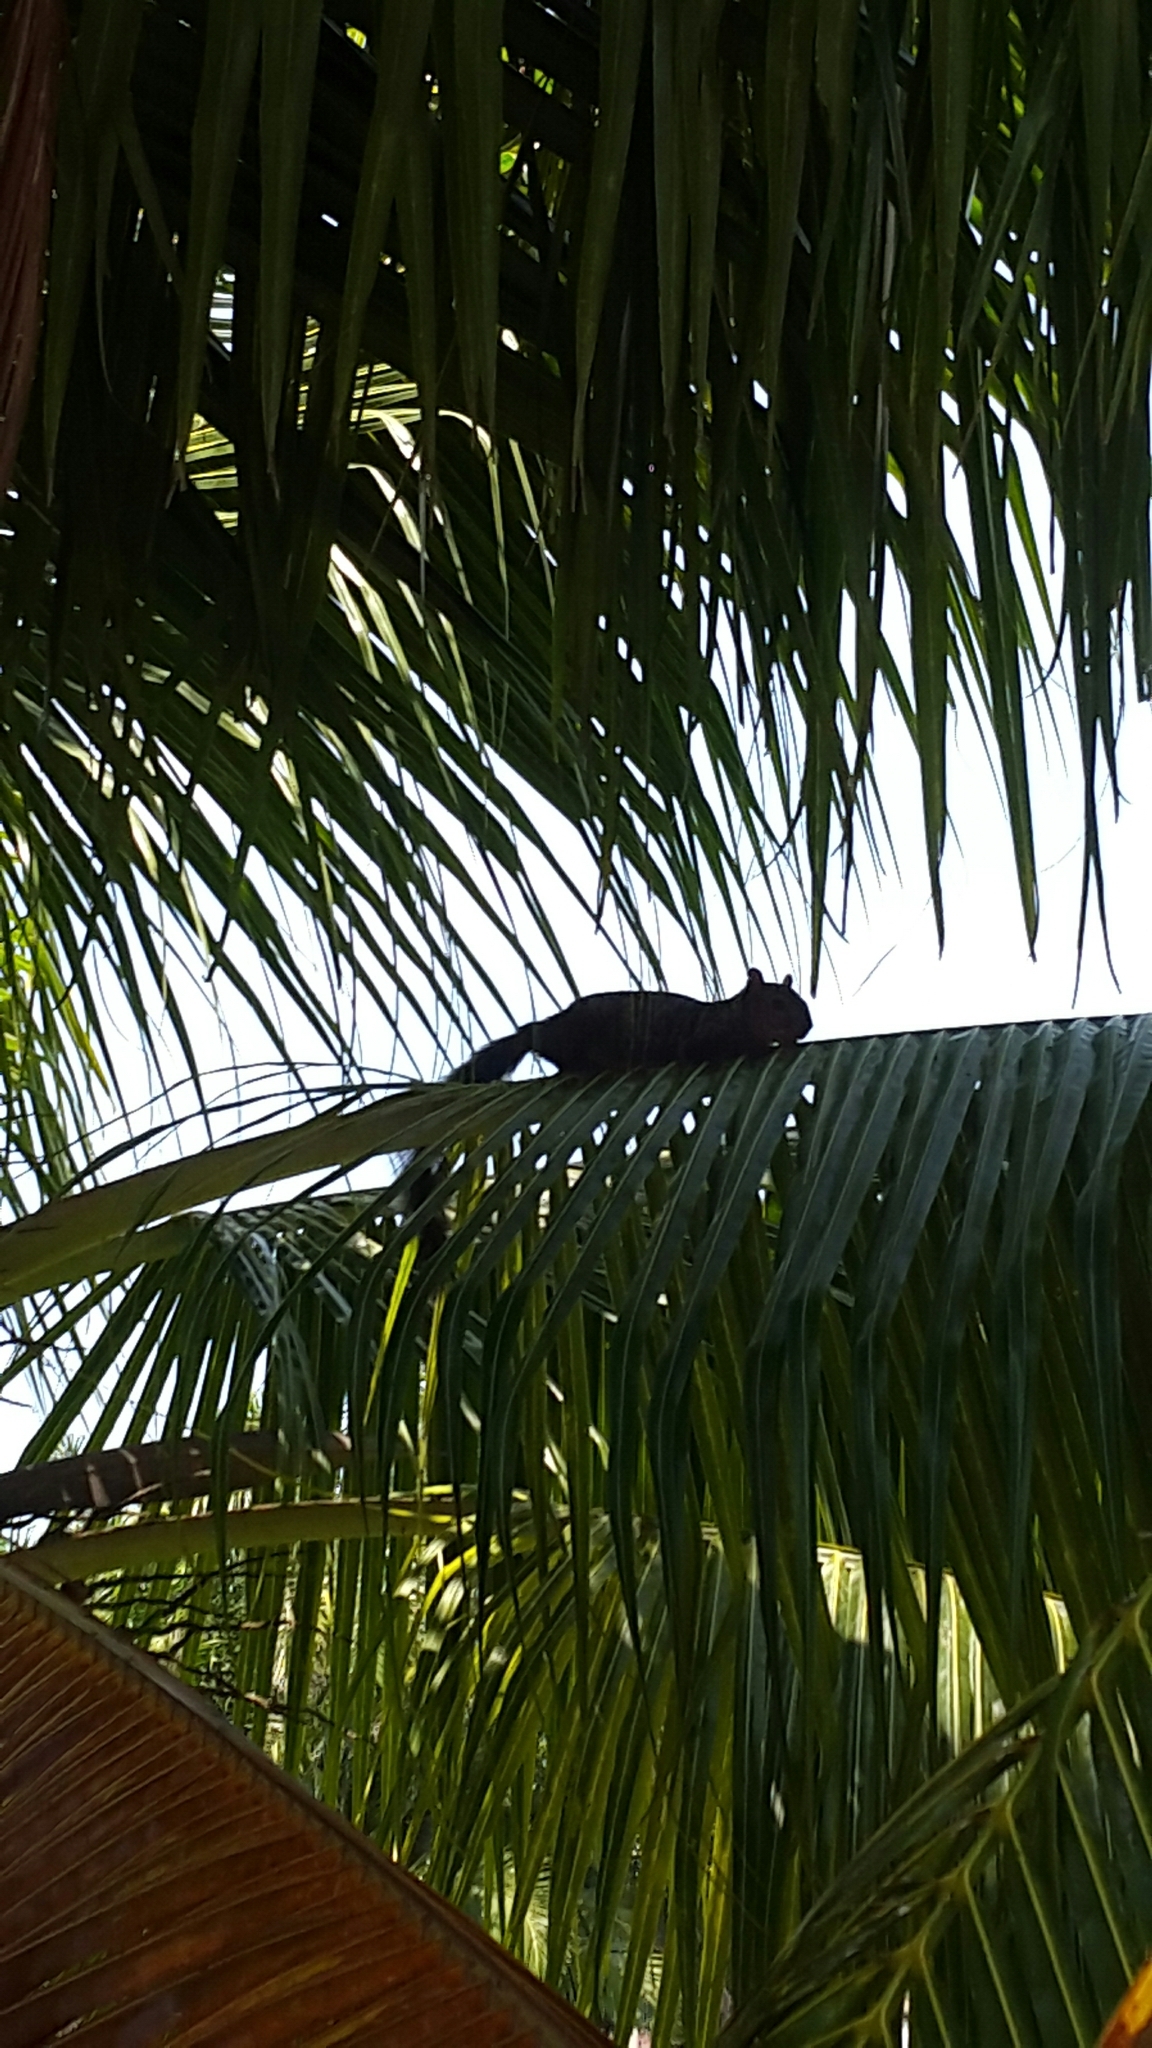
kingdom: Animalia
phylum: Chordata
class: Mammalia
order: Rodentia
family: Sciuridae
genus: Sciurus
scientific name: Sciurus variegatoides
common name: Variegated squirrel
